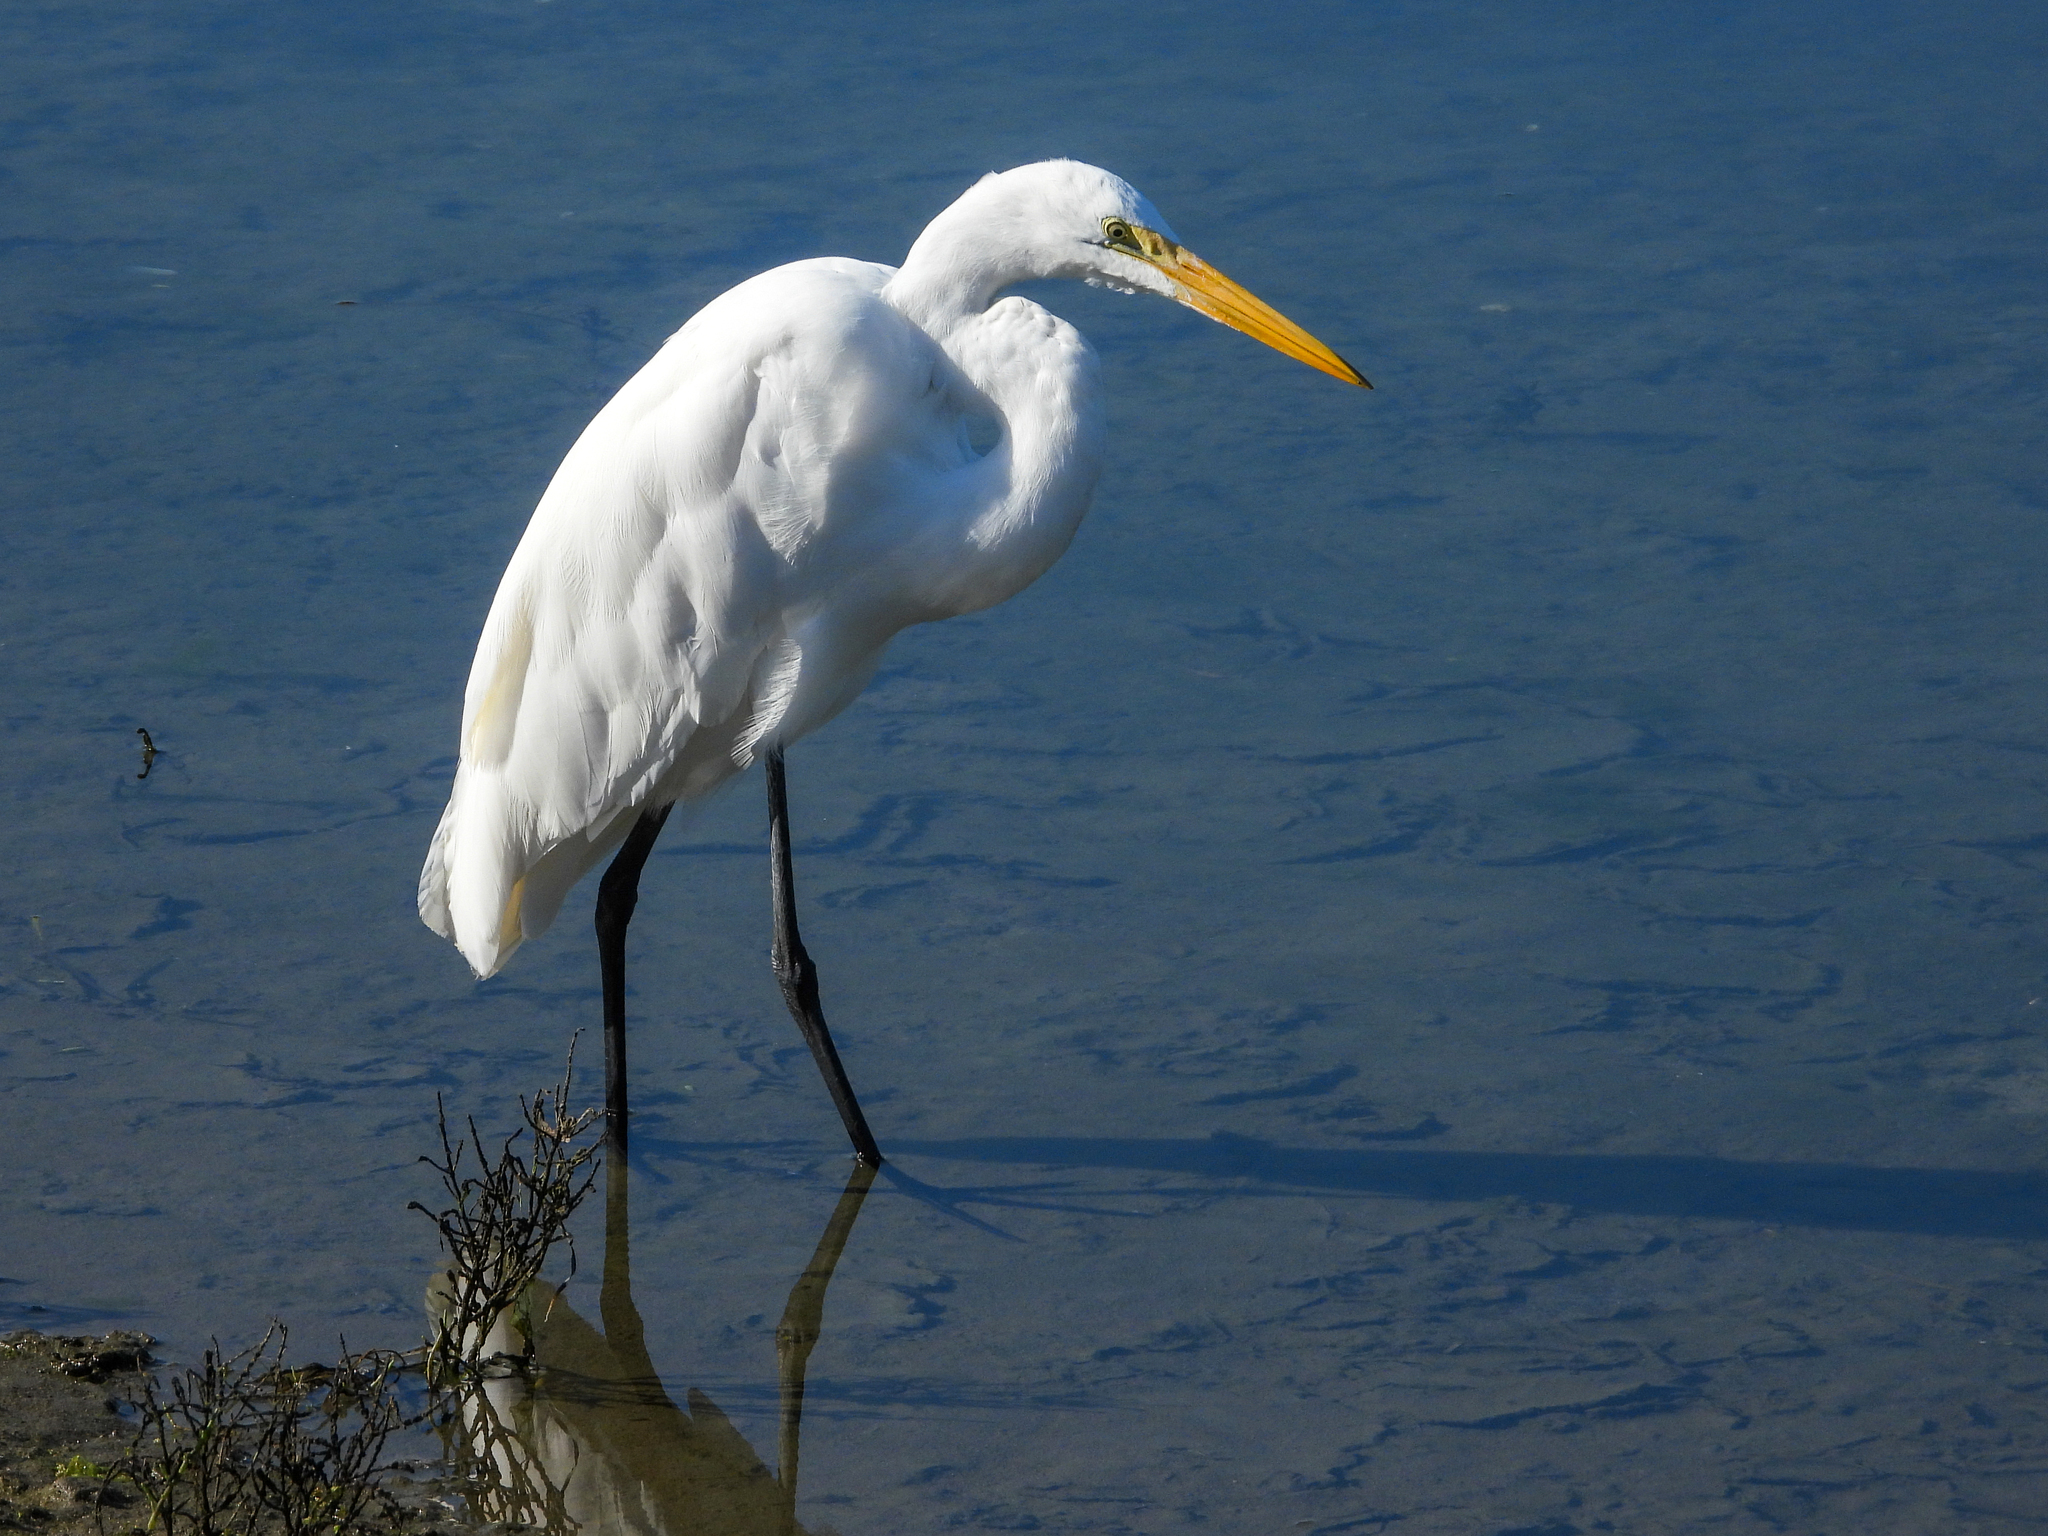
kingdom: Animalia
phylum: Chordata
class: Aves
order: Pelecaniformes
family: Ardeidae
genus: Ardea
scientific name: Ardea alba
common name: Great egret
